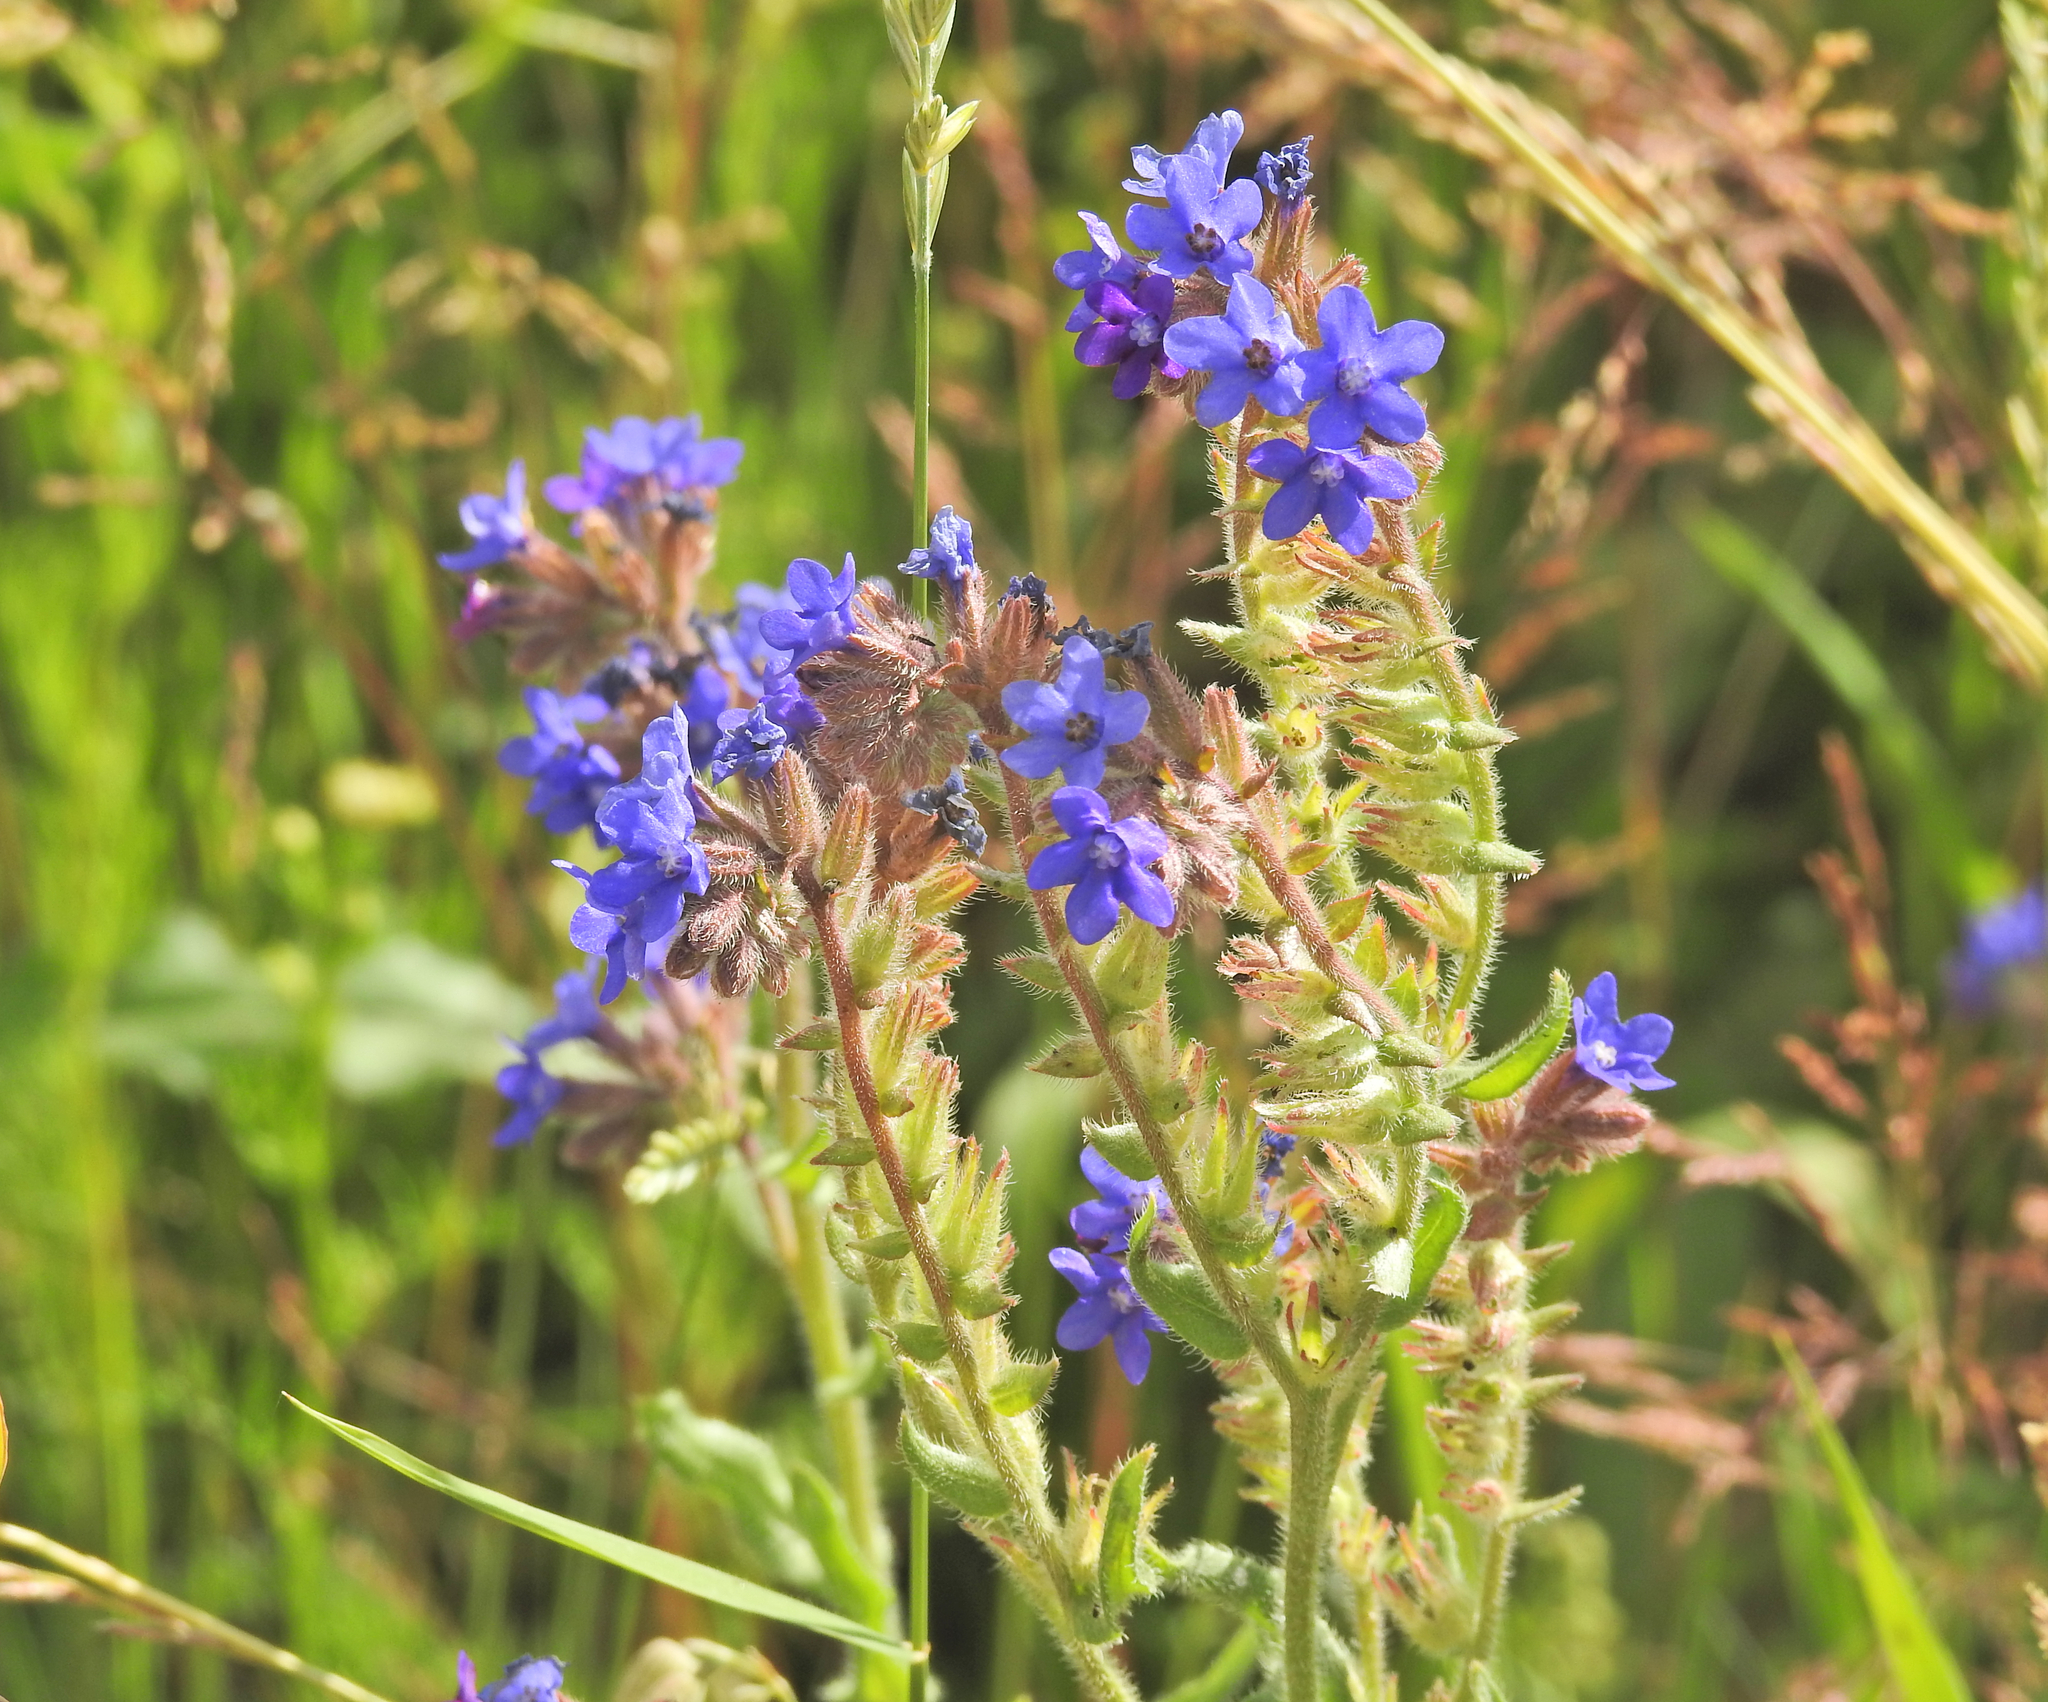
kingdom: Plantae
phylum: Tracheophyta
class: Magnoliopsida
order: Boraginales
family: Boraginaceae
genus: Anchusa
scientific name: Anchusa officinalis
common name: Alkanet
